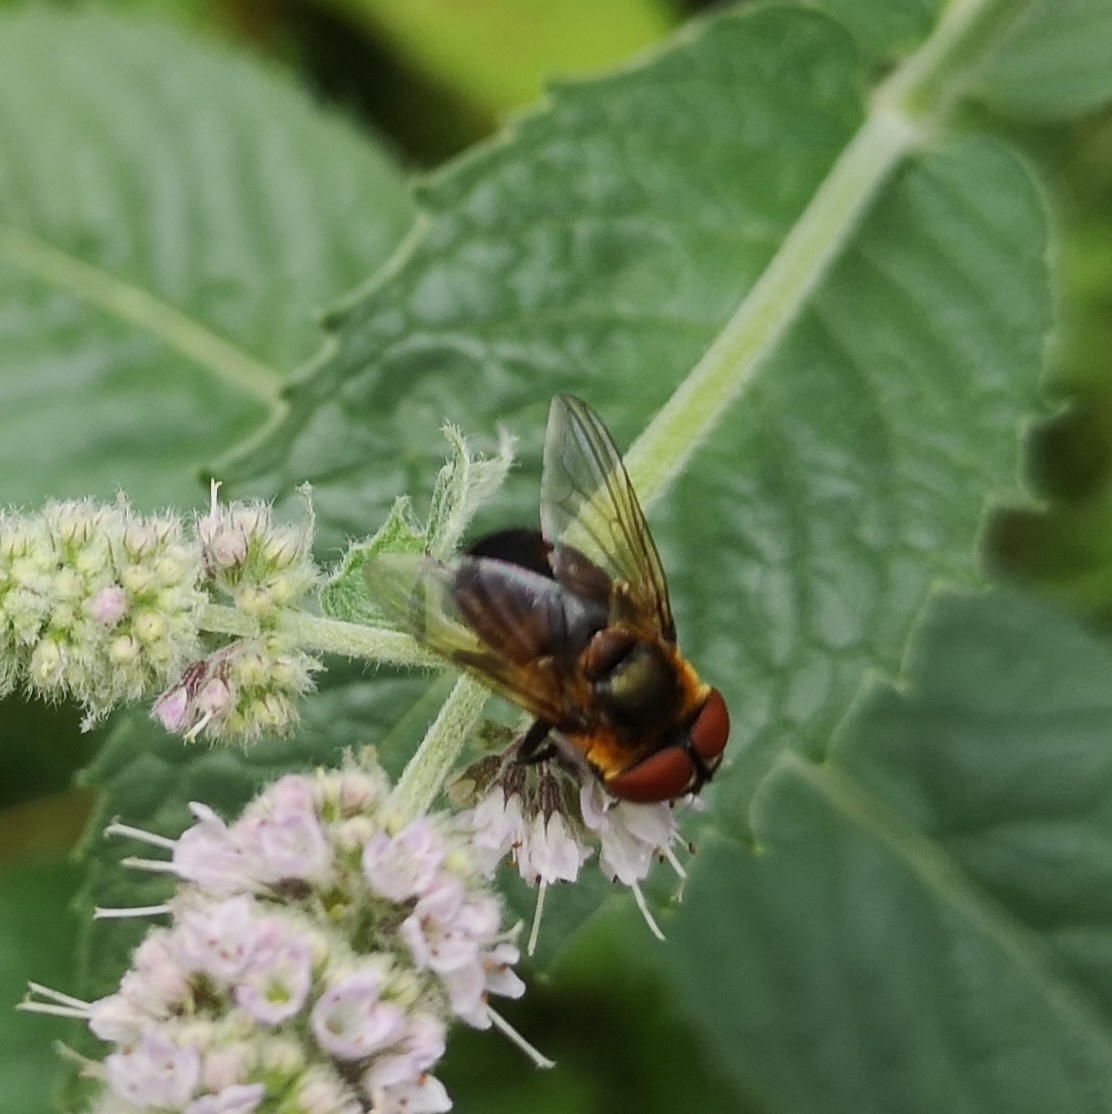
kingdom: Animalia
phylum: Arthropoda
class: Insecta
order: Diptera
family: Tachinidae
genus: Phasia
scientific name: Phasia hemiptera
